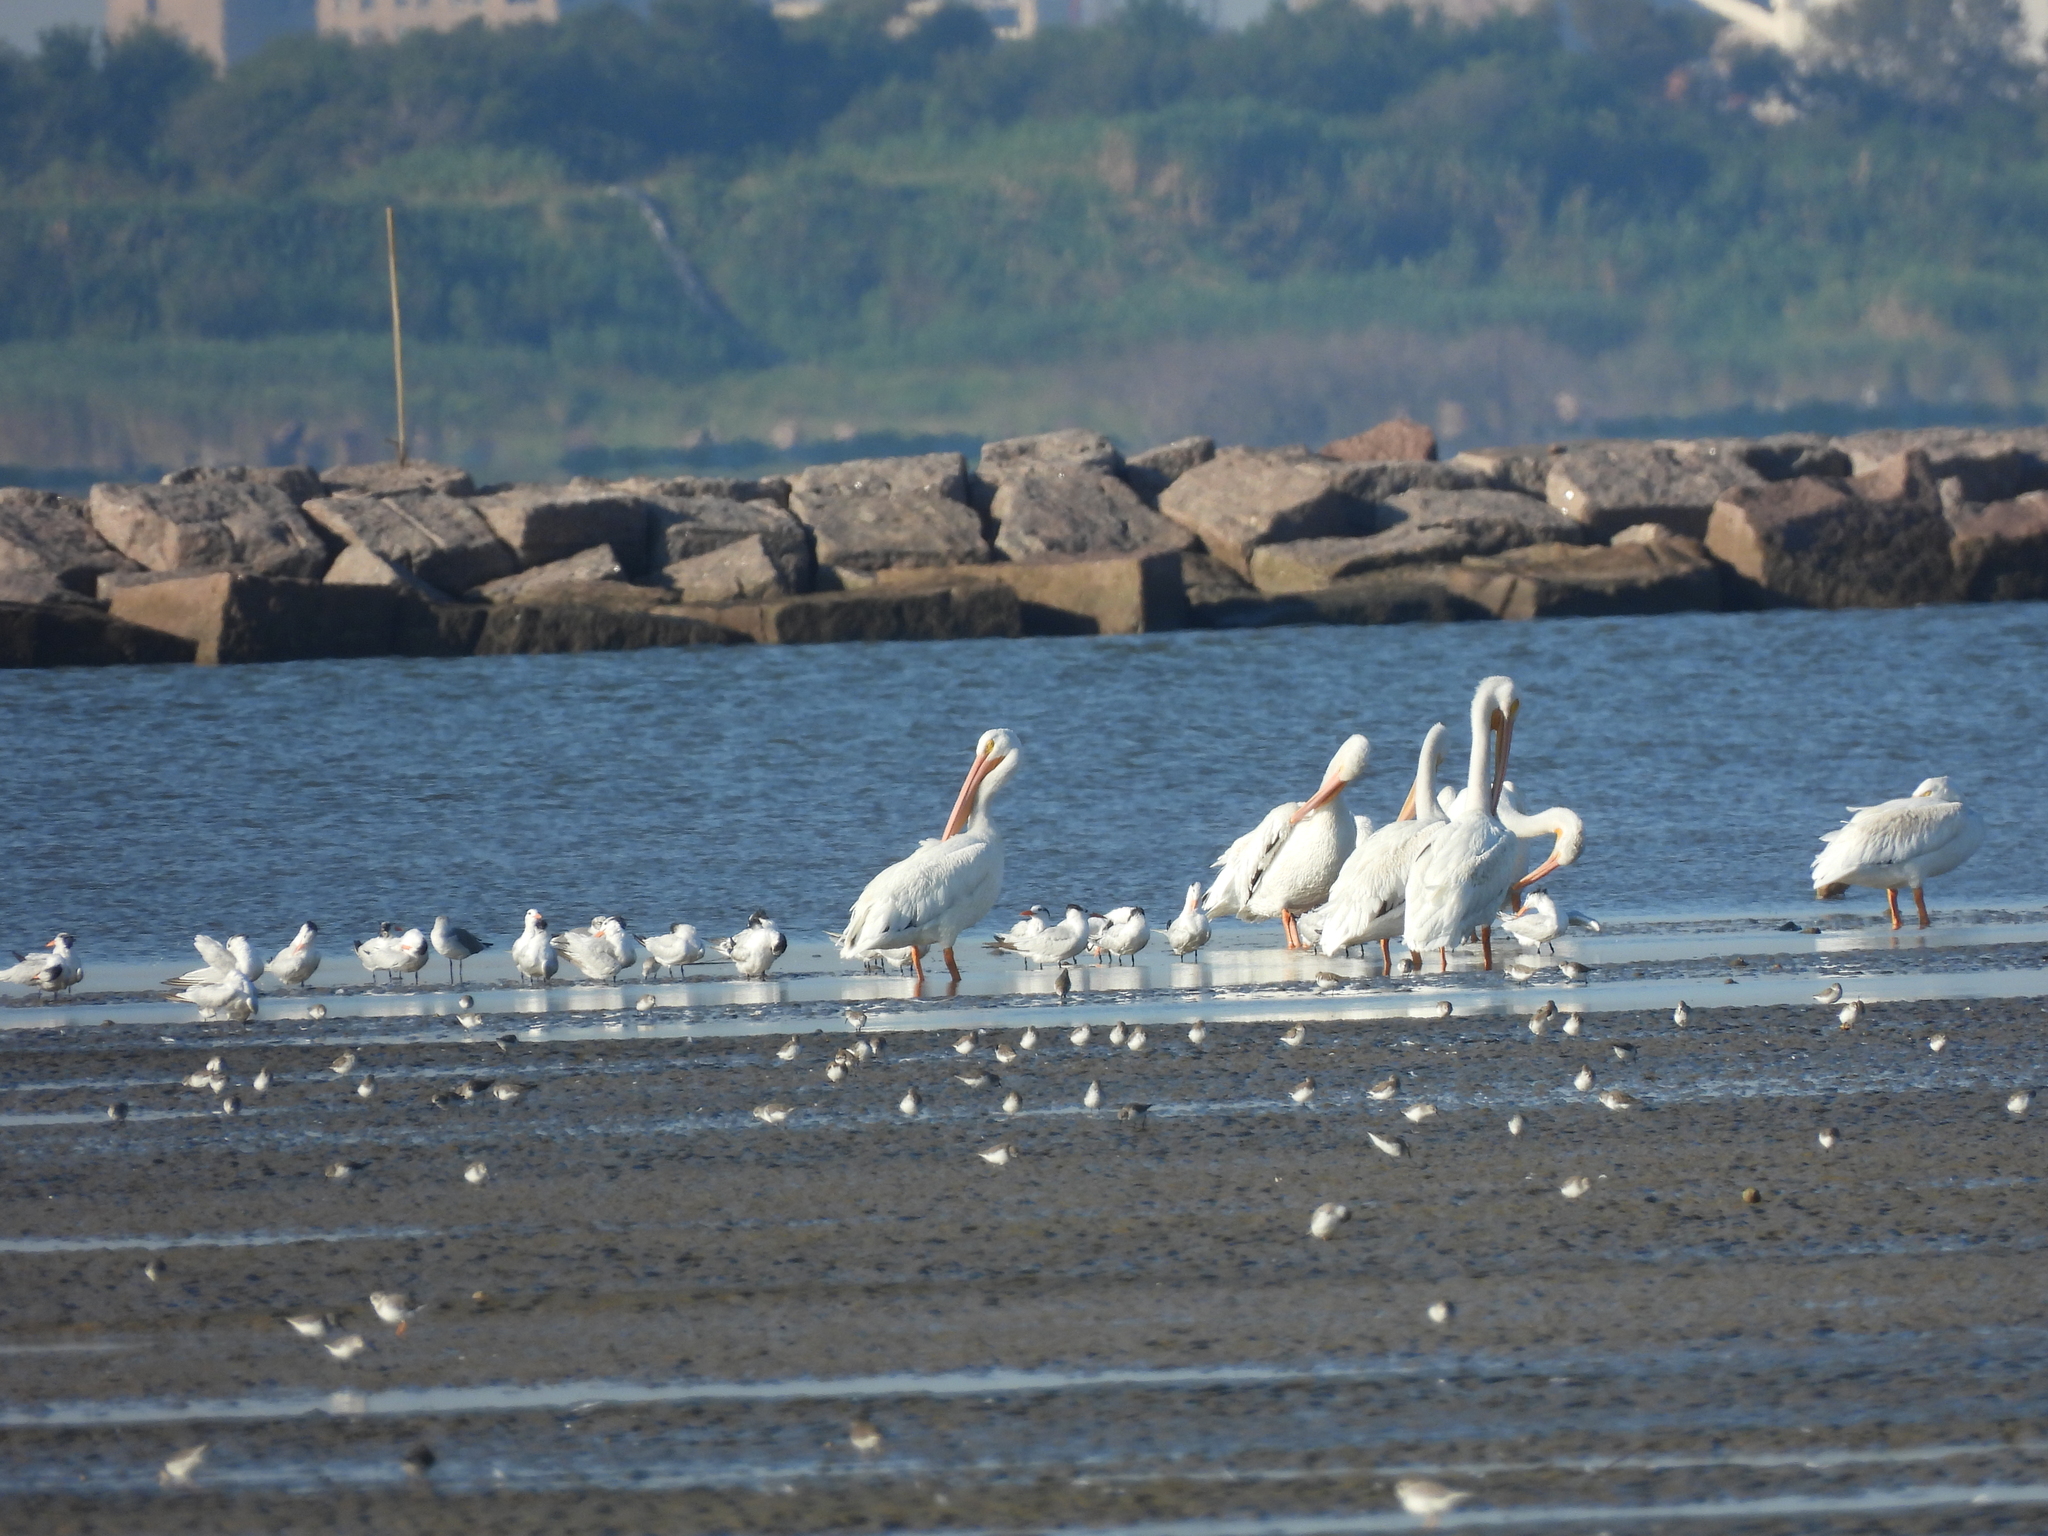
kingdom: Animalia
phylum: Chordata
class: Aves
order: Pelecaniformes
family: Pelecanidae
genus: Pelecanus
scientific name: Pelecanus erythrorhynchos
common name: American white pelican
